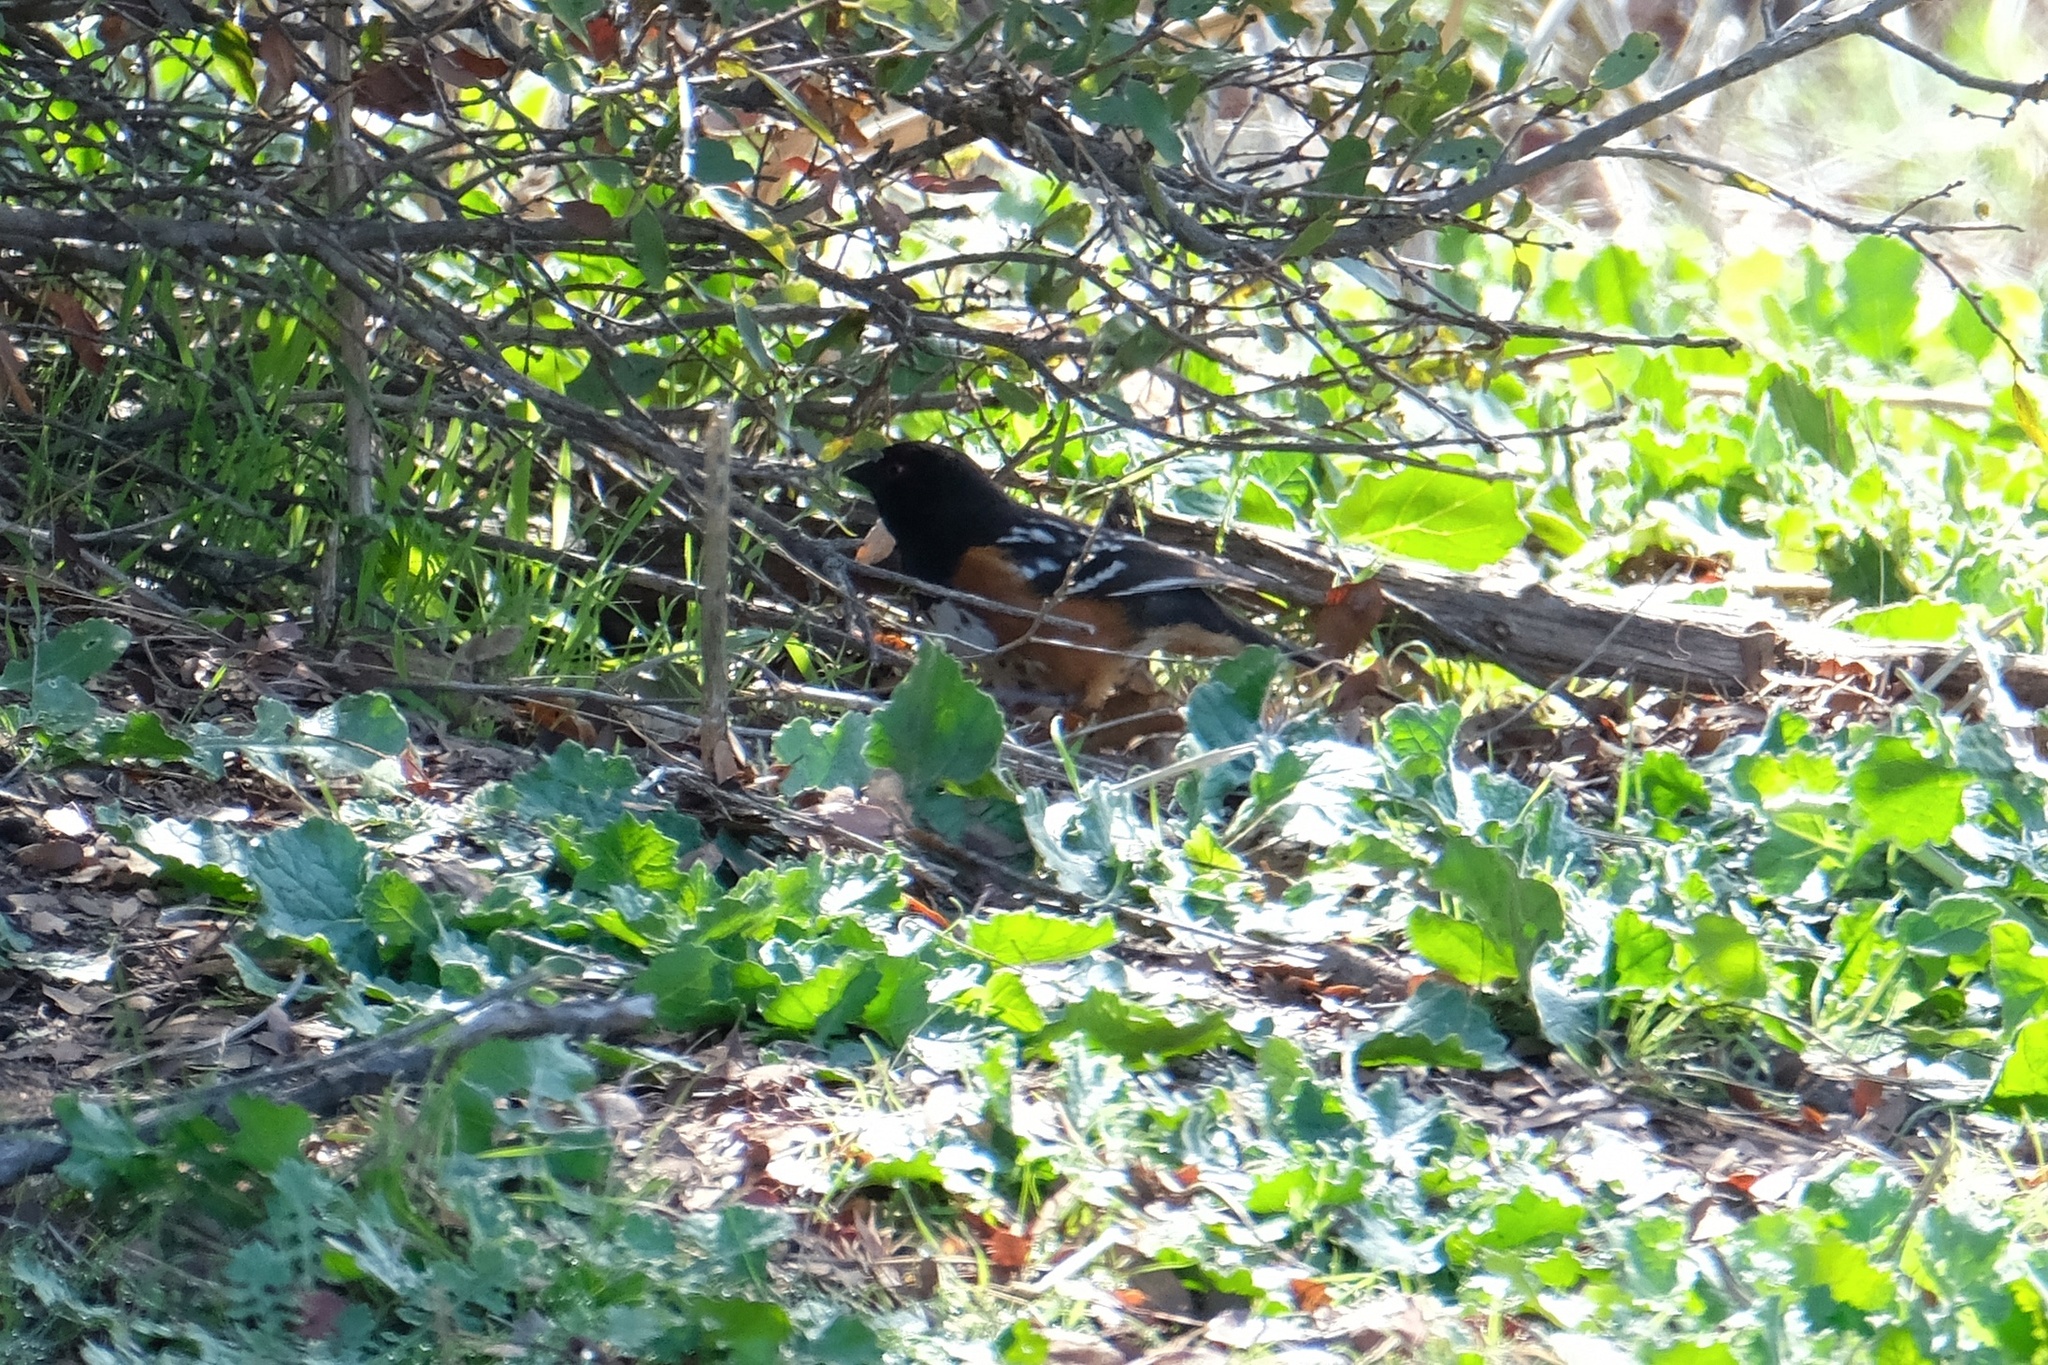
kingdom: Animalia
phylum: Chordata
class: Aves
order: Passeriformes
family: Passerellidae
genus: Pipilo
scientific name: Pipilo maculatus
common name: Spotted towhee
